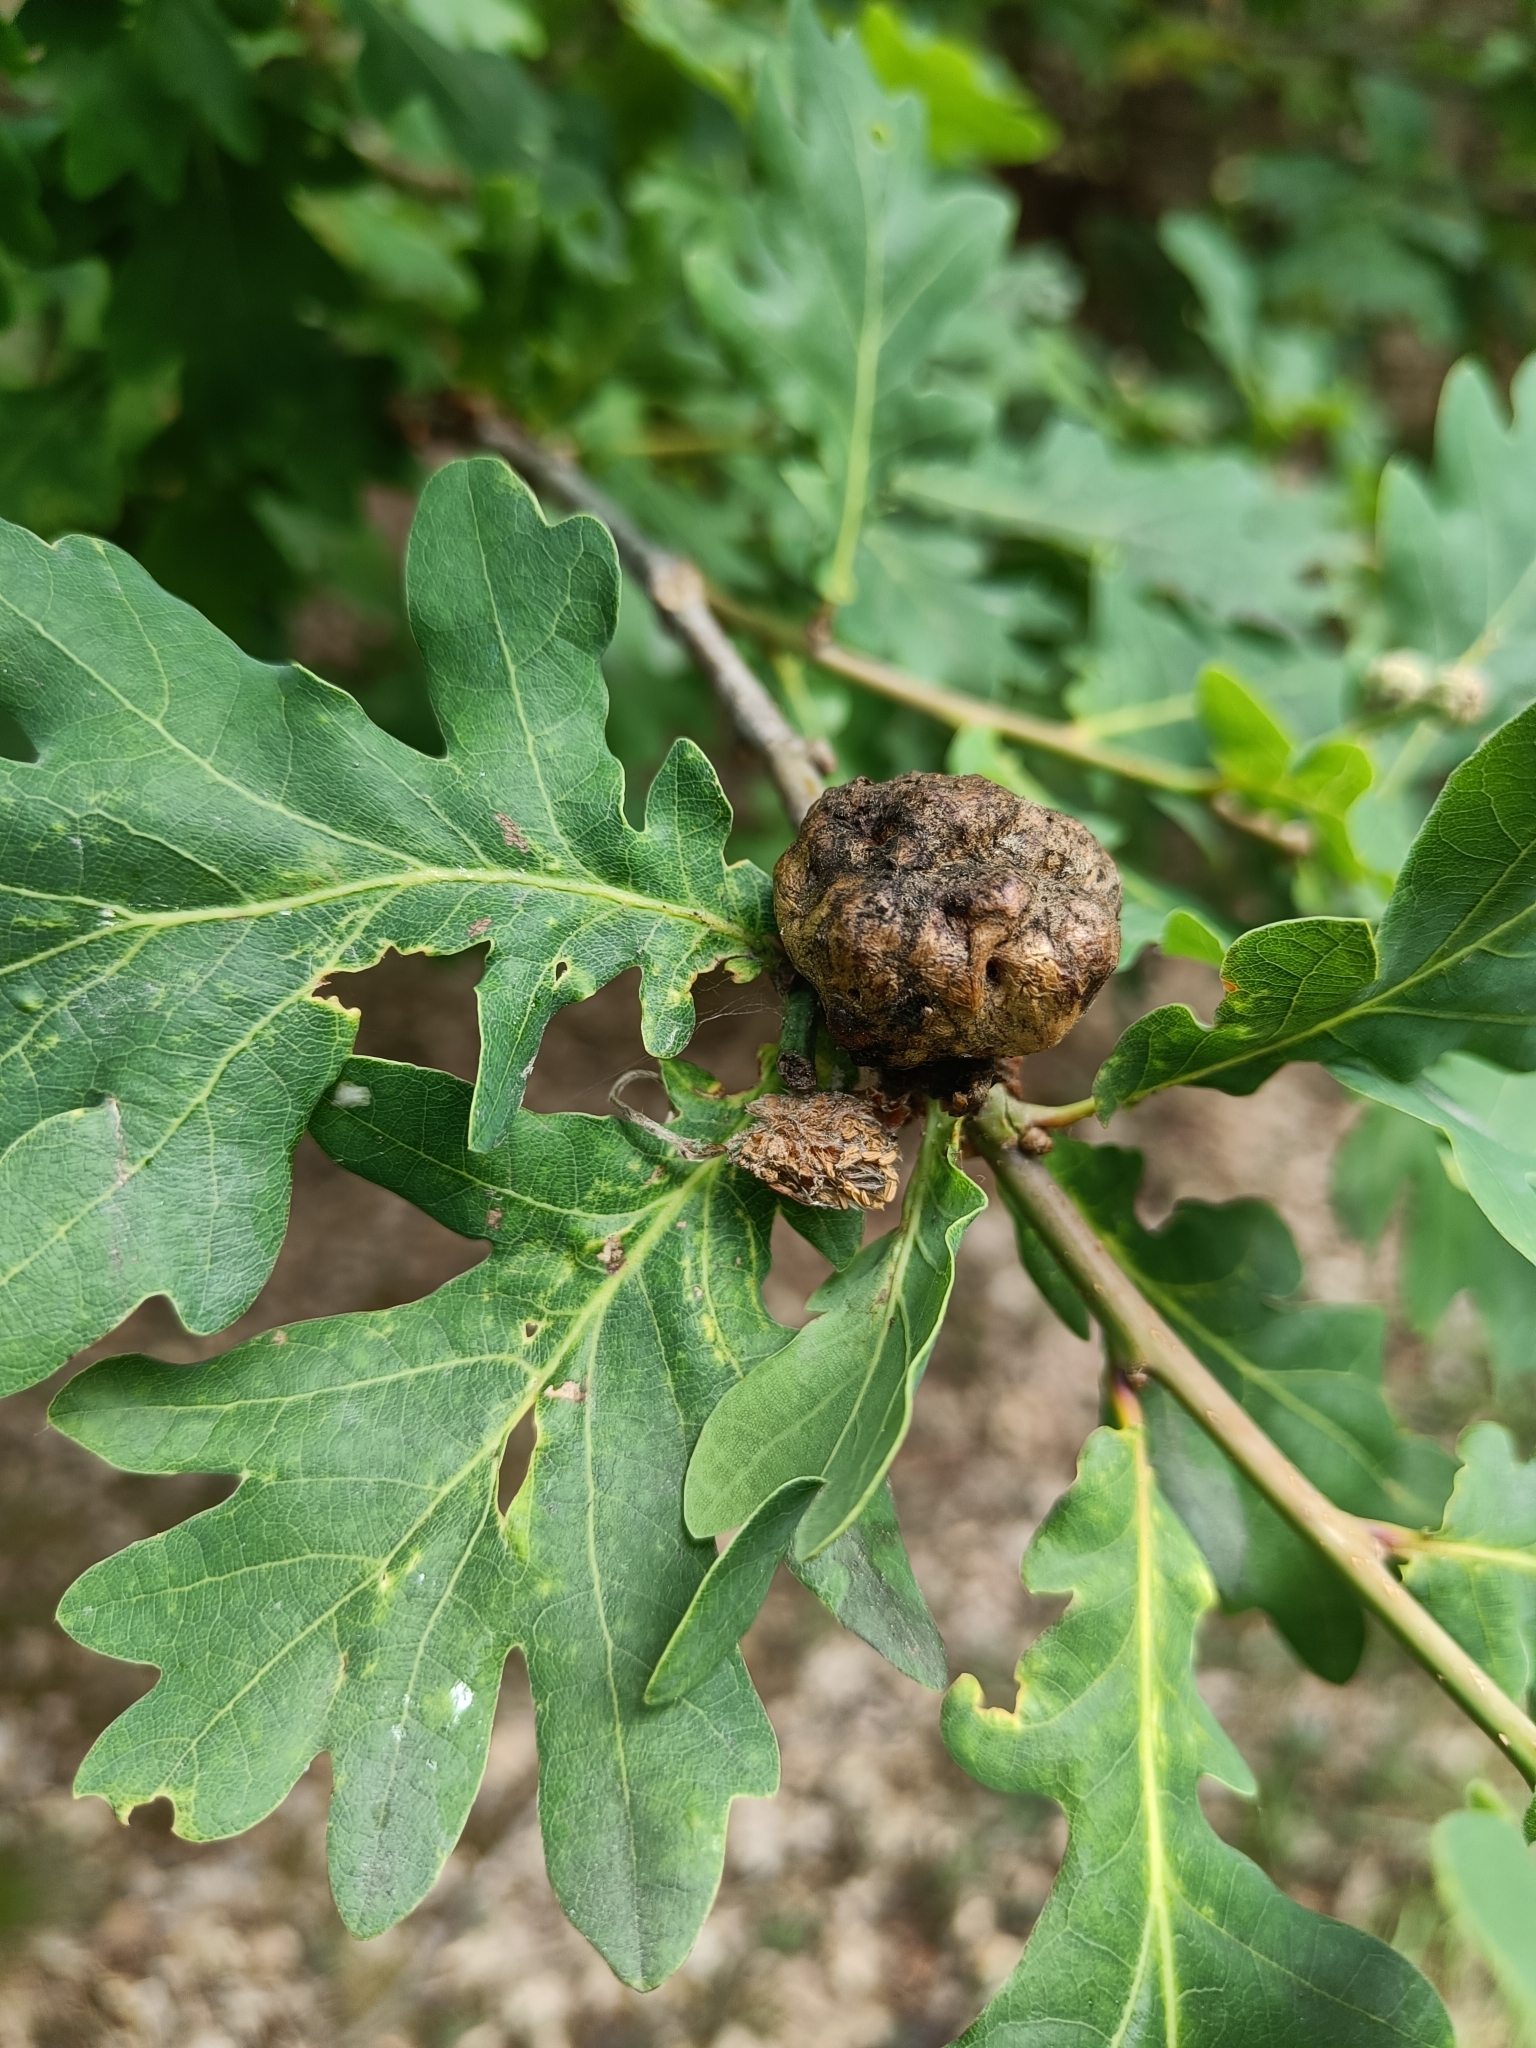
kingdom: Animalia
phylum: Arthropoda
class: Insecta
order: Hymenoptera
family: Cynipidae
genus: Biorhiza
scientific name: Biorhiza pallida
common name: Oak apple
